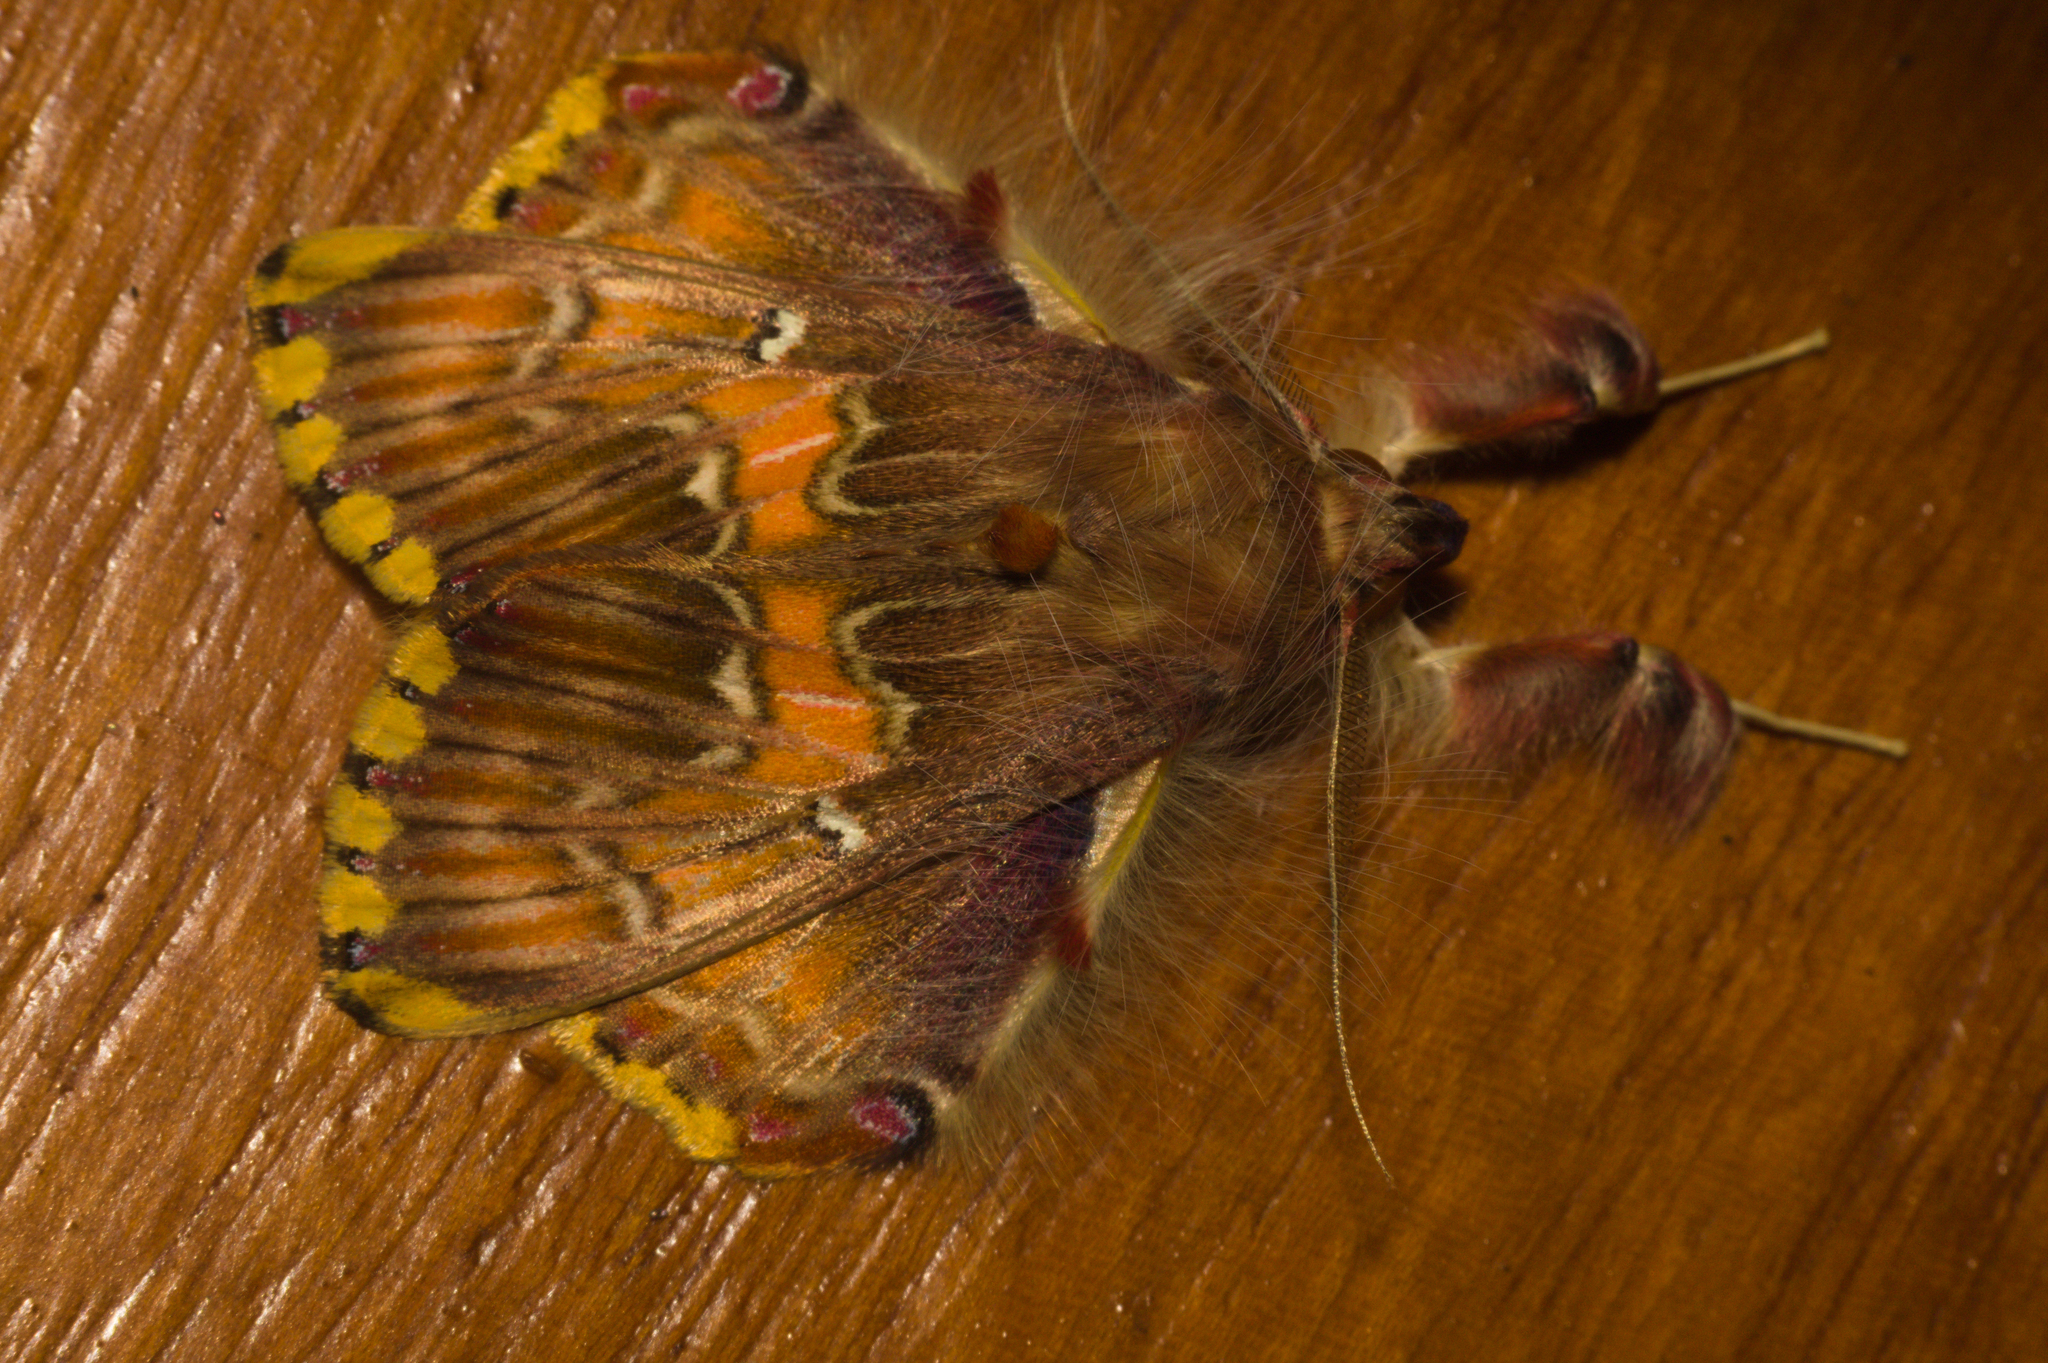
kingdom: Animalia
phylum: Arthropoda
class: Insecta
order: Lepidoptera
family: Erebidae
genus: Sosxetra
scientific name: Sosxetra grata
